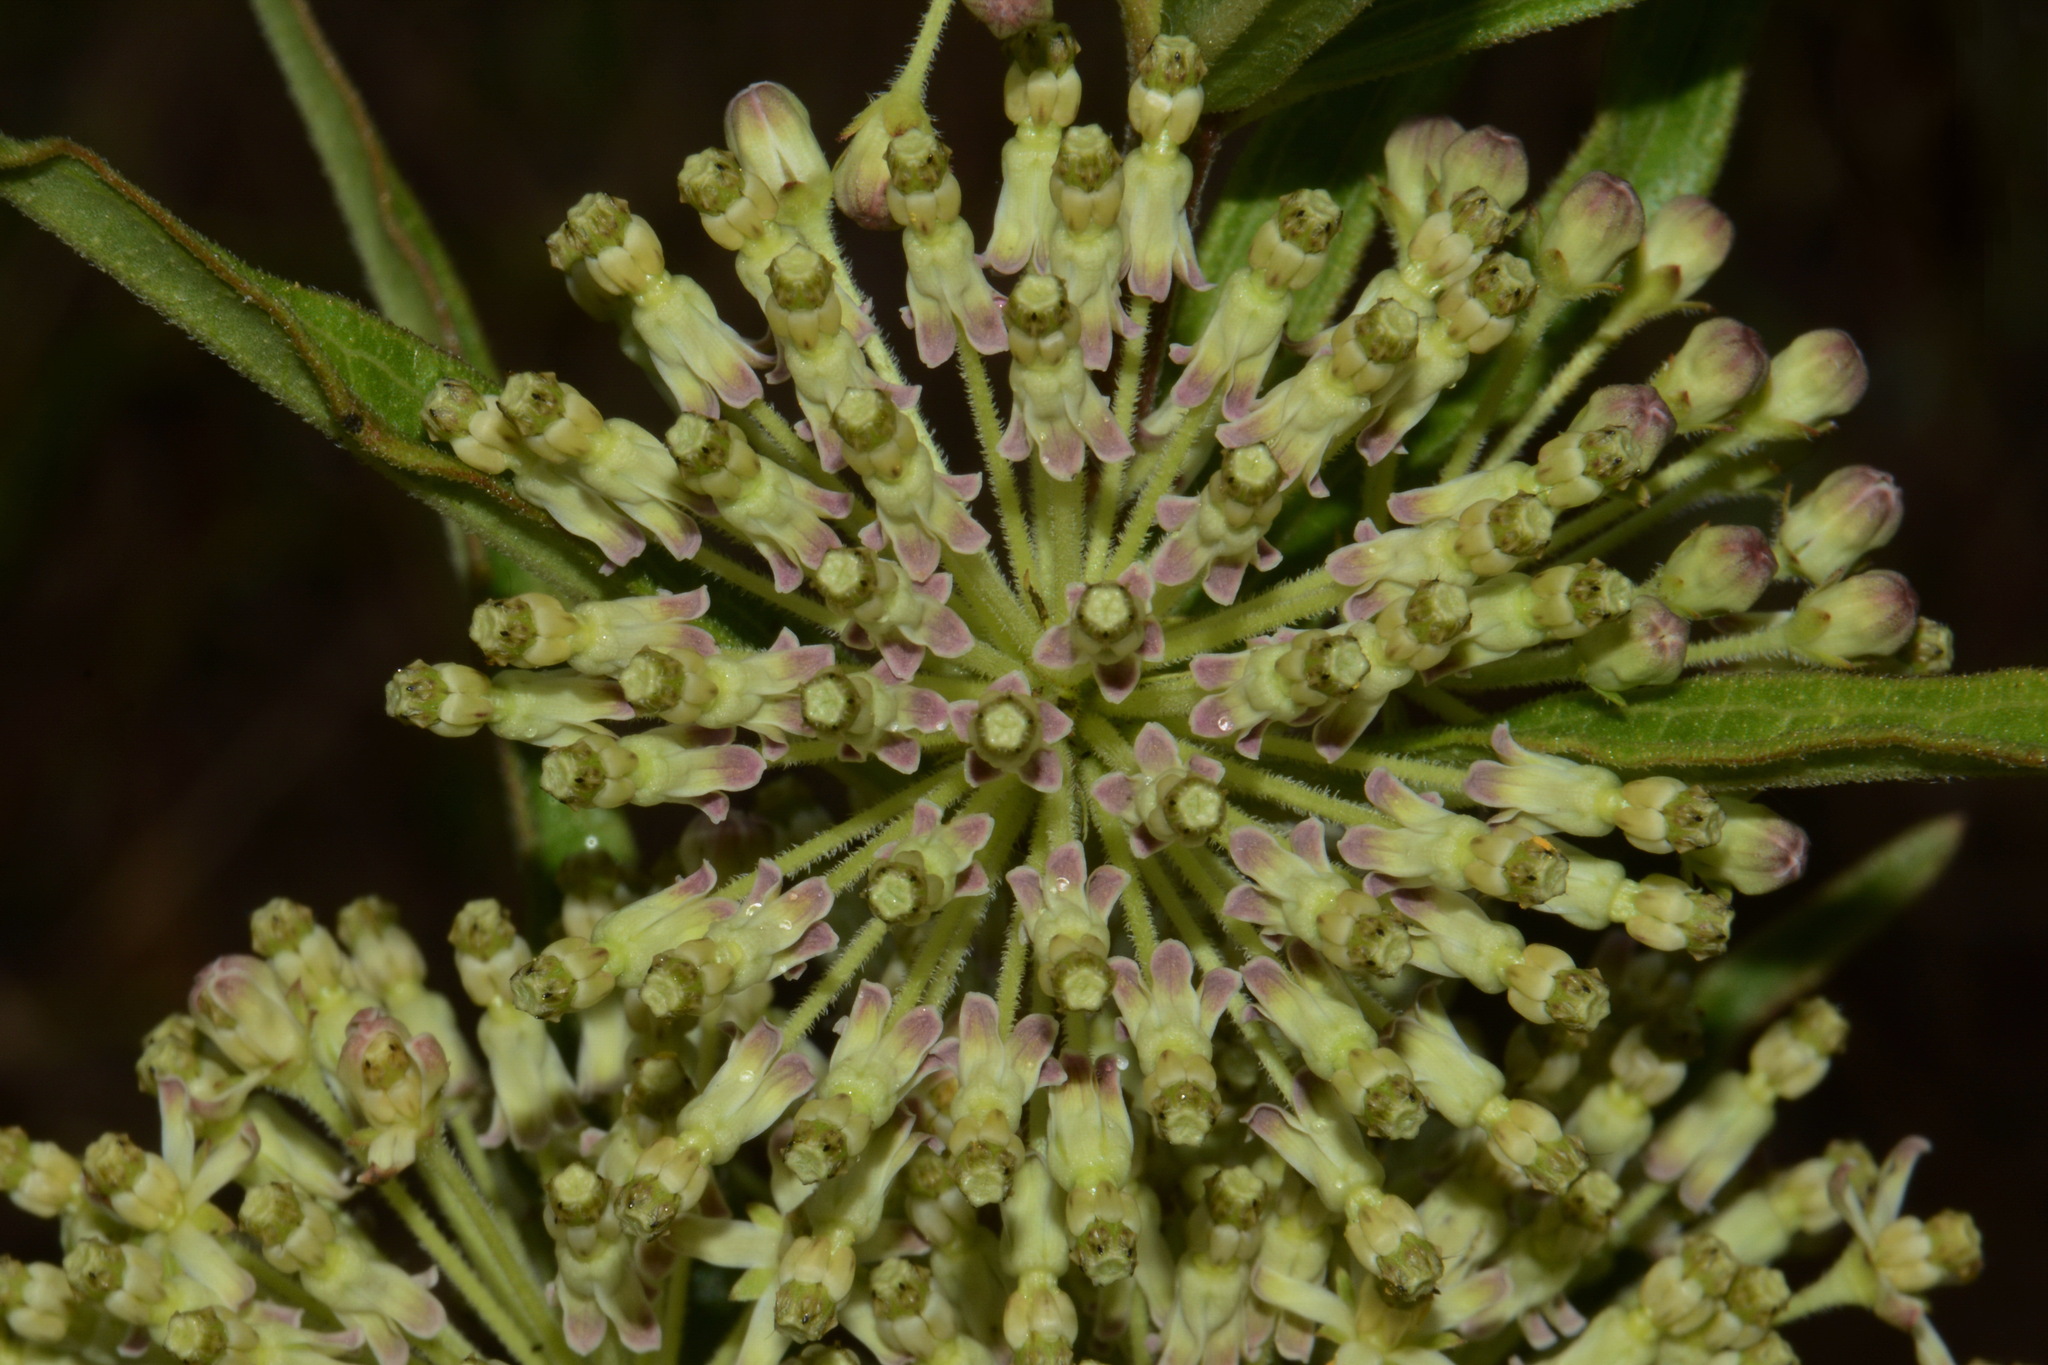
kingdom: Plantae
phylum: Tracheophyta
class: Magnoliopsida
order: Gentianales
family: Apocynaceae
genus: Asclepias
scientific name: Asclepias hirtella
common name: Prairie milkweed
